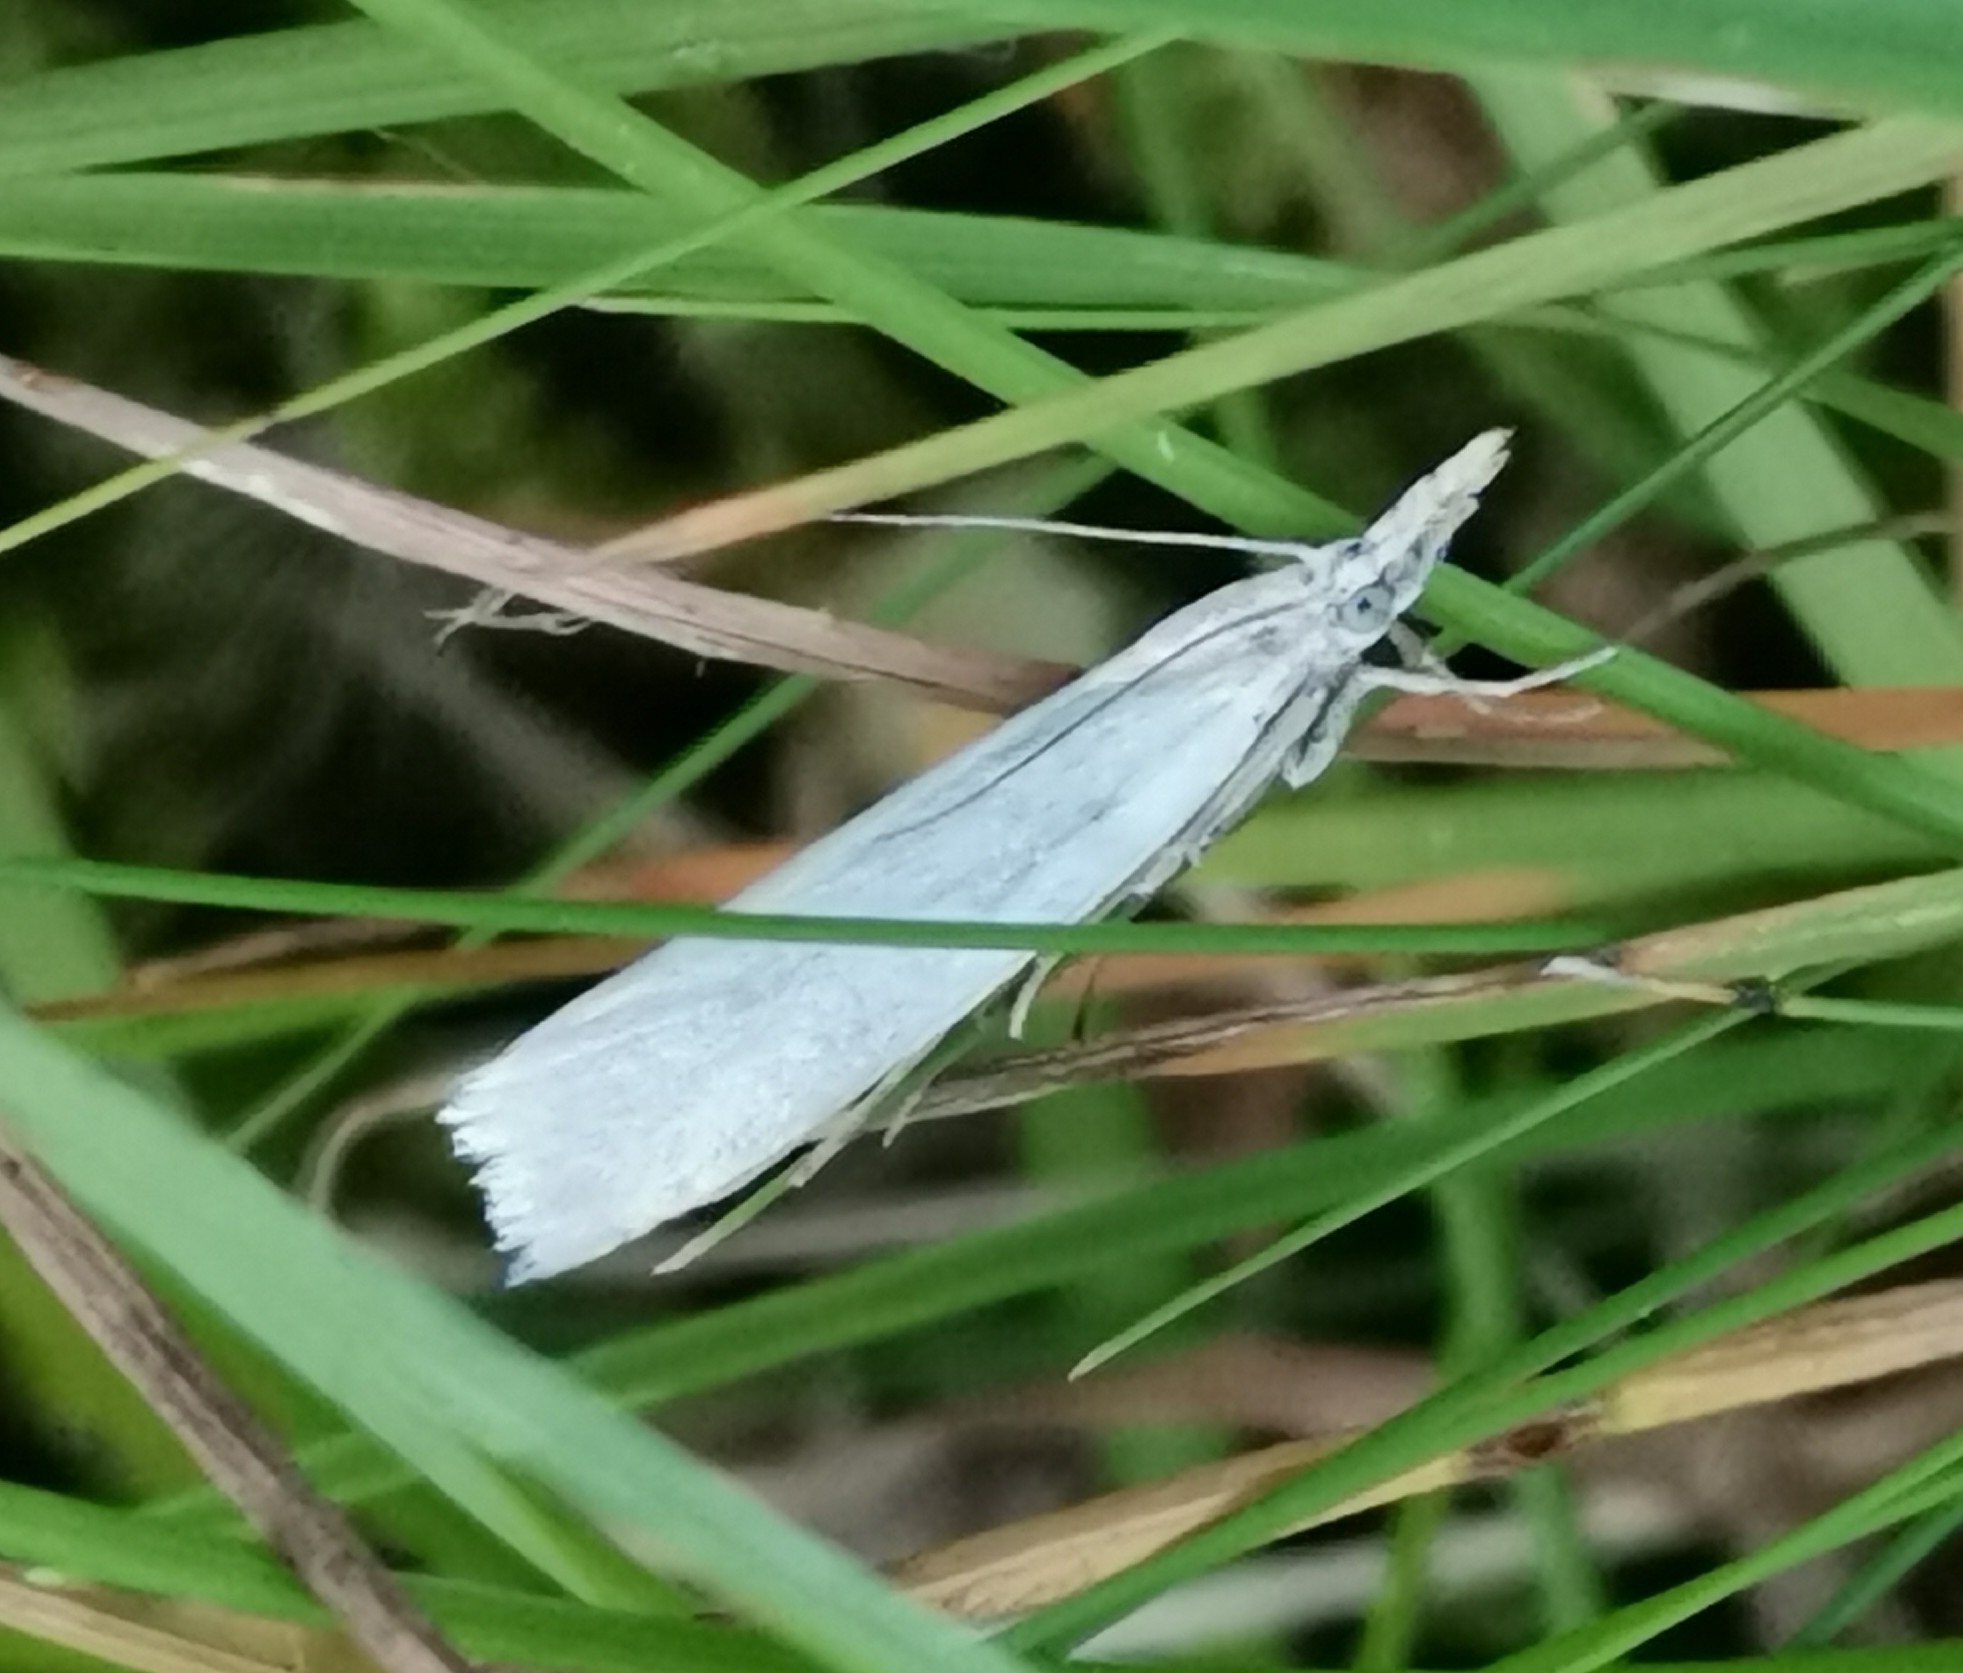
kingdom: Animalia
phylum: Arthropoda
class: Insecta
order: Lepidoptera
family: Crambidae
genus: Crambus
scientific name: Crambus perlellus
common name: Yellow satin veneer
